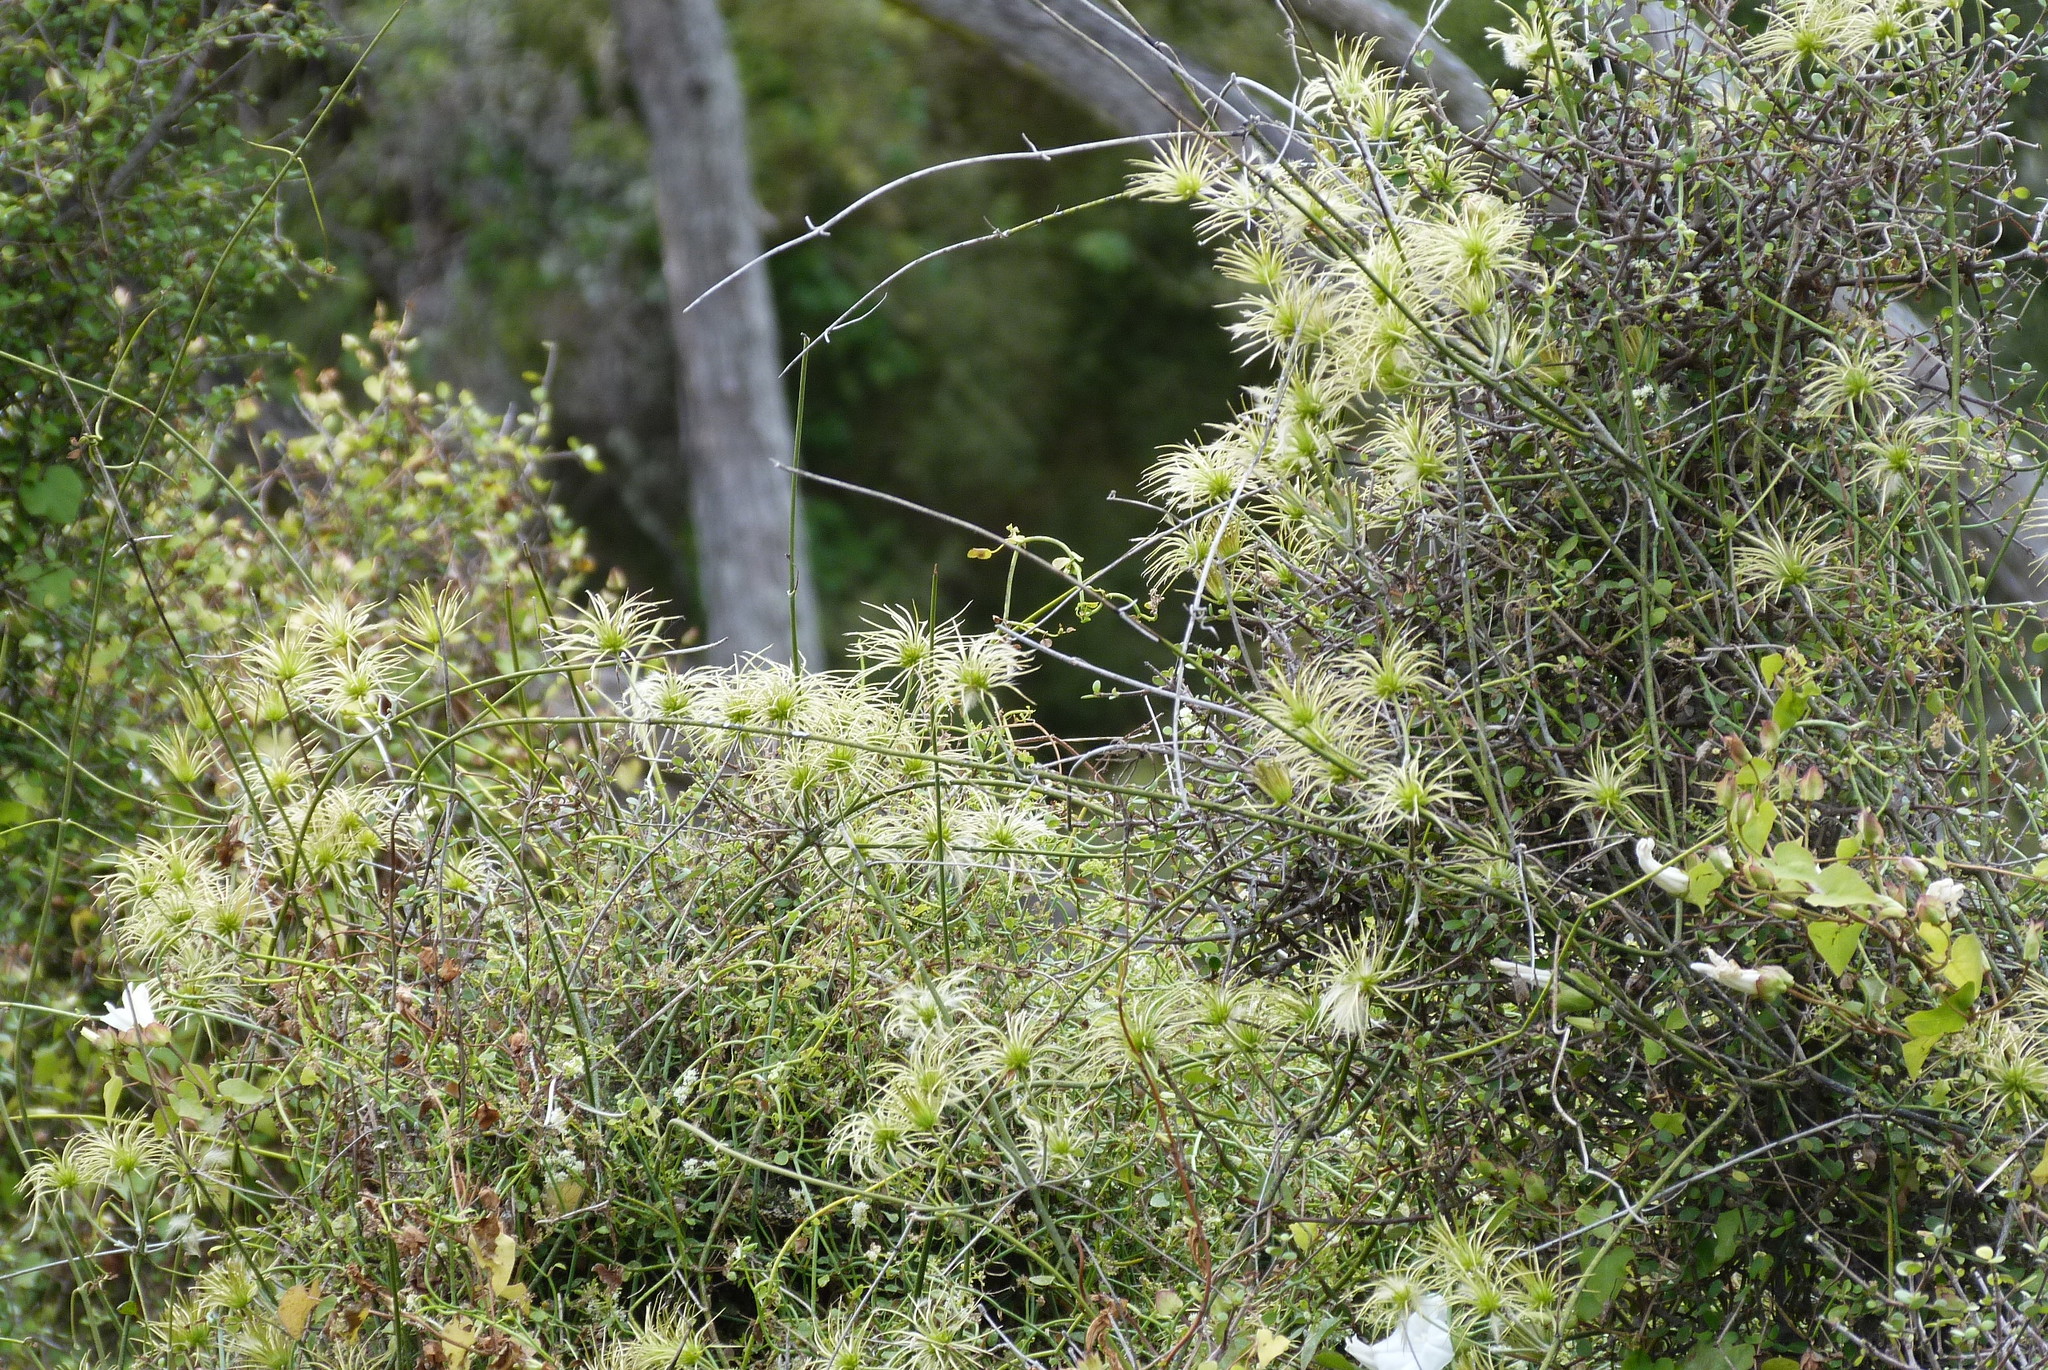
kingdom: Plantae
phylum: Tracheophyta
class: Magnoliopsida
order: Ranunculales
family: Ranunculaceae
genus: Clematis
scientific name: Clematis afoliata
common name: Rush-stem clematis
